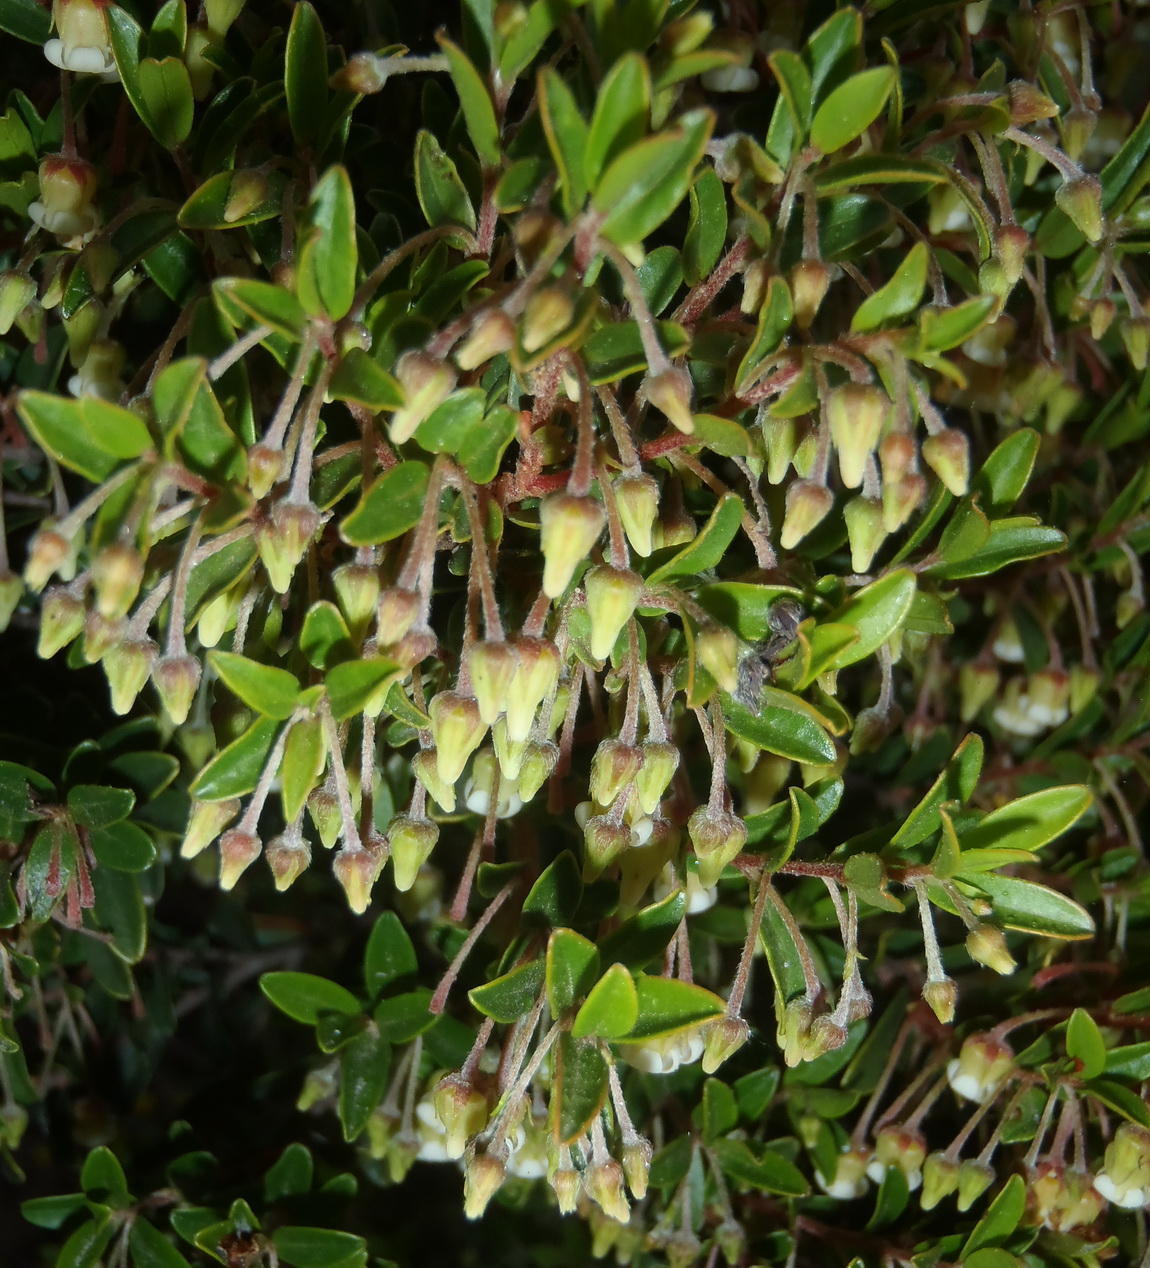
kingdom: Plantae
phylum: Tracheophyta
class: Magnoliopsida
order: Ericales
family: Ebenaceae
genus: Diospyros
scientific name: Diospyros glabra
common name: Fynbos star apple
